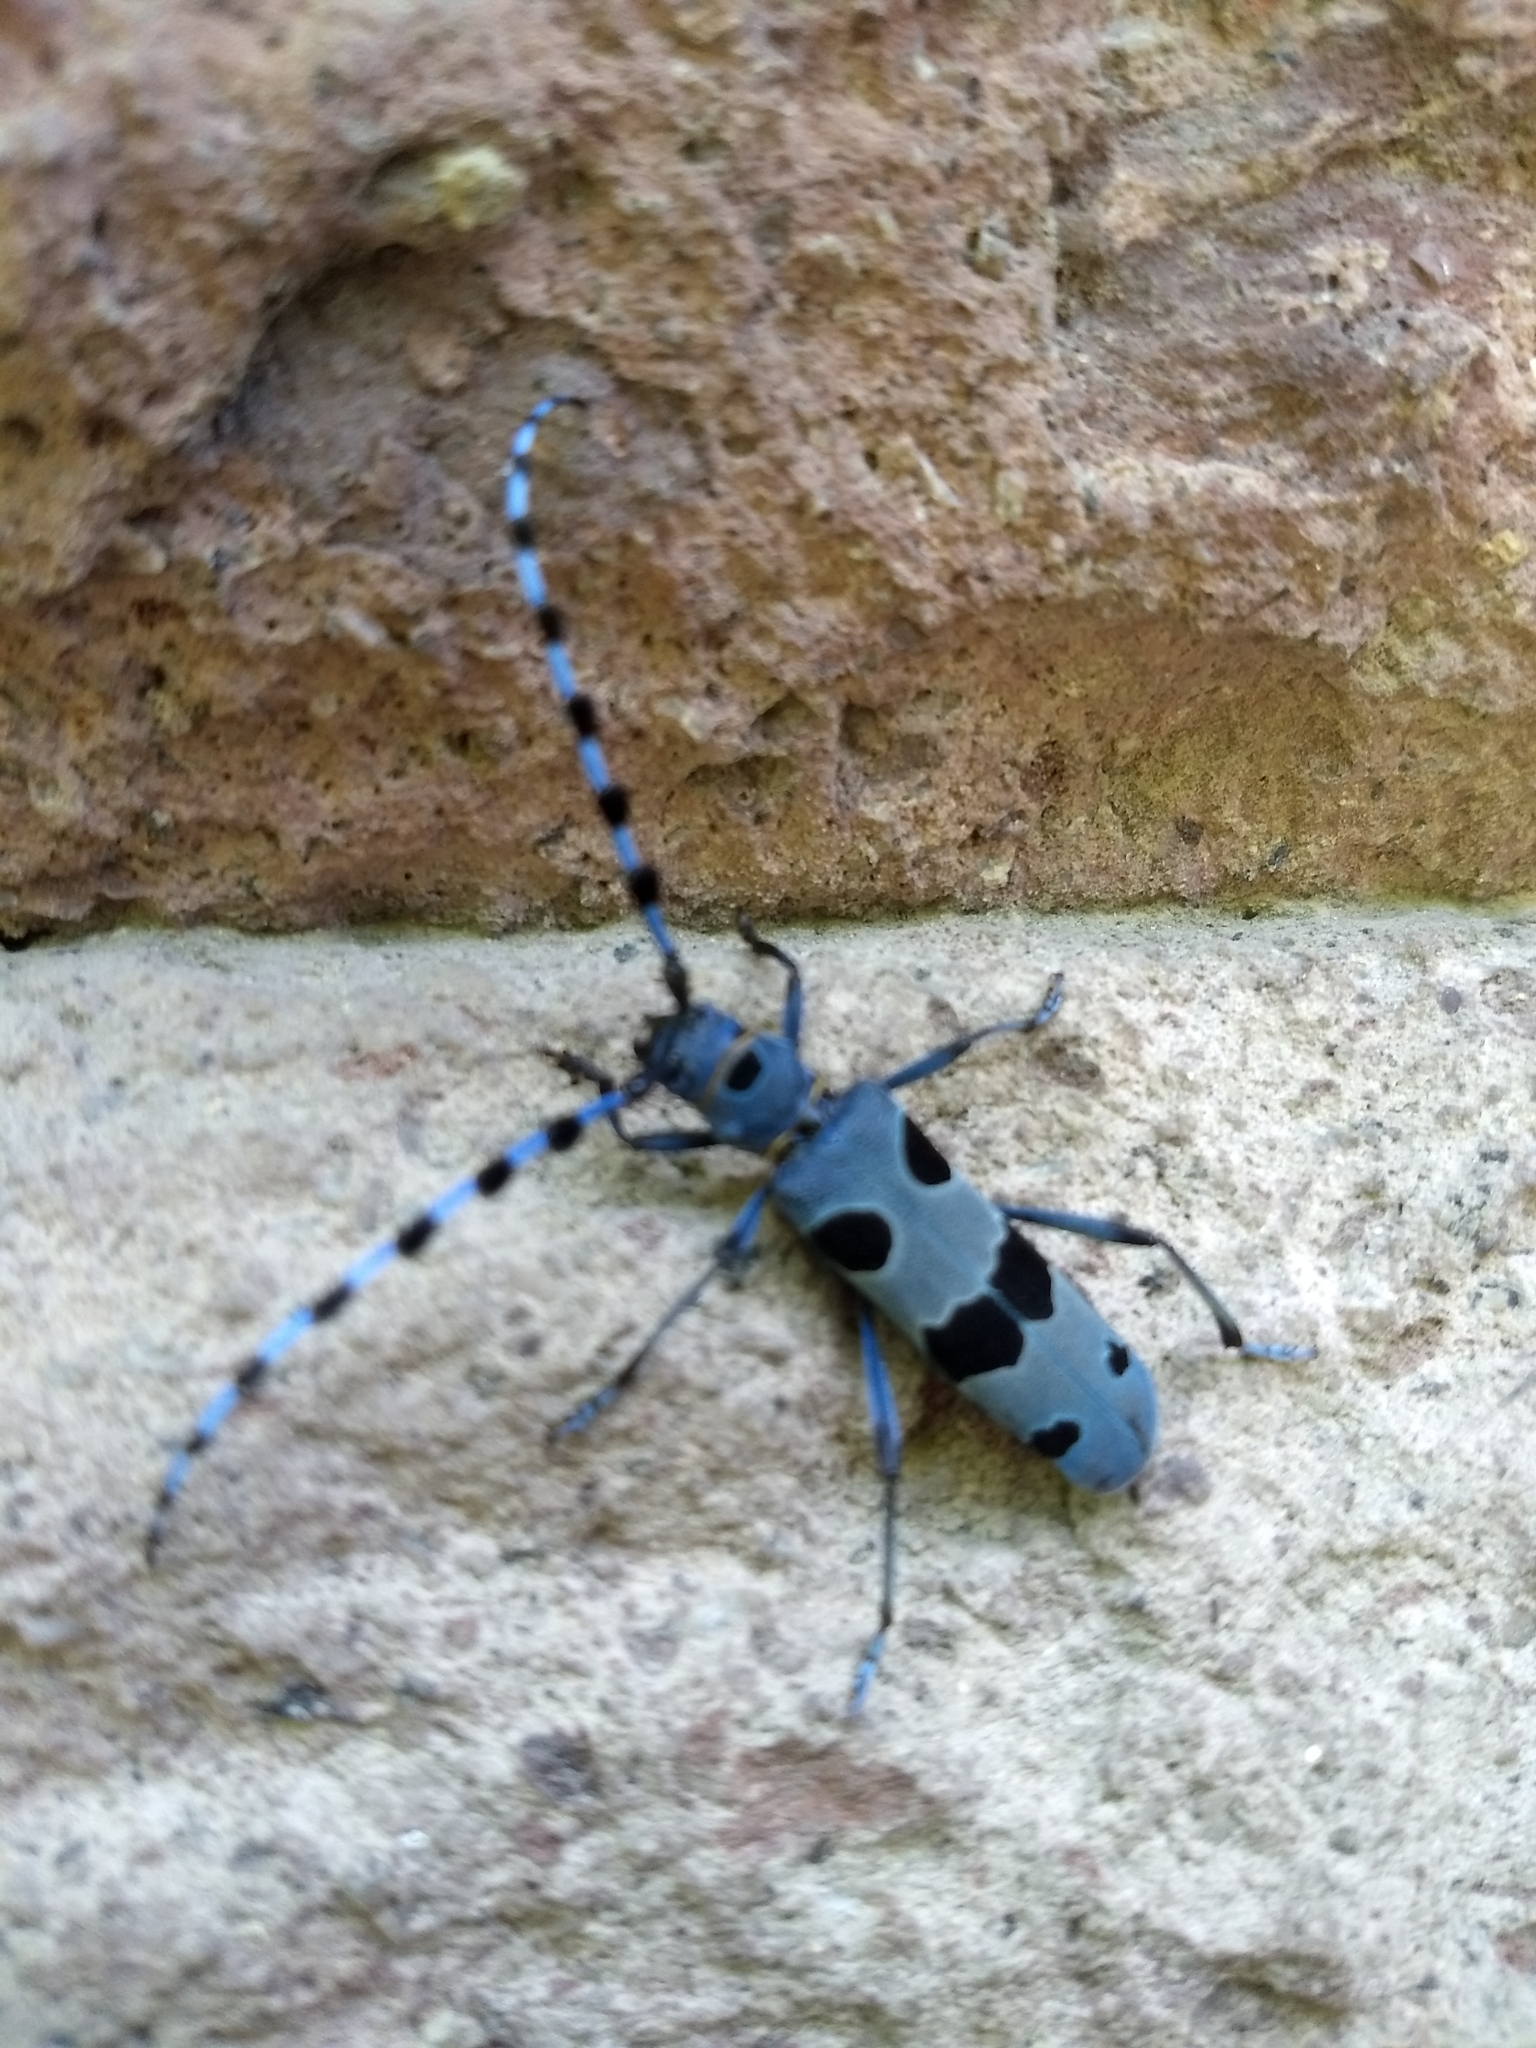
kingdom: Animalia
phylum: Arthropoda
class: Insecta
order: Coleoptera
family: Cerambycidae
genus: Rosalia
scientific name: Rosalia alpina
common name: Rosalia longicorn
